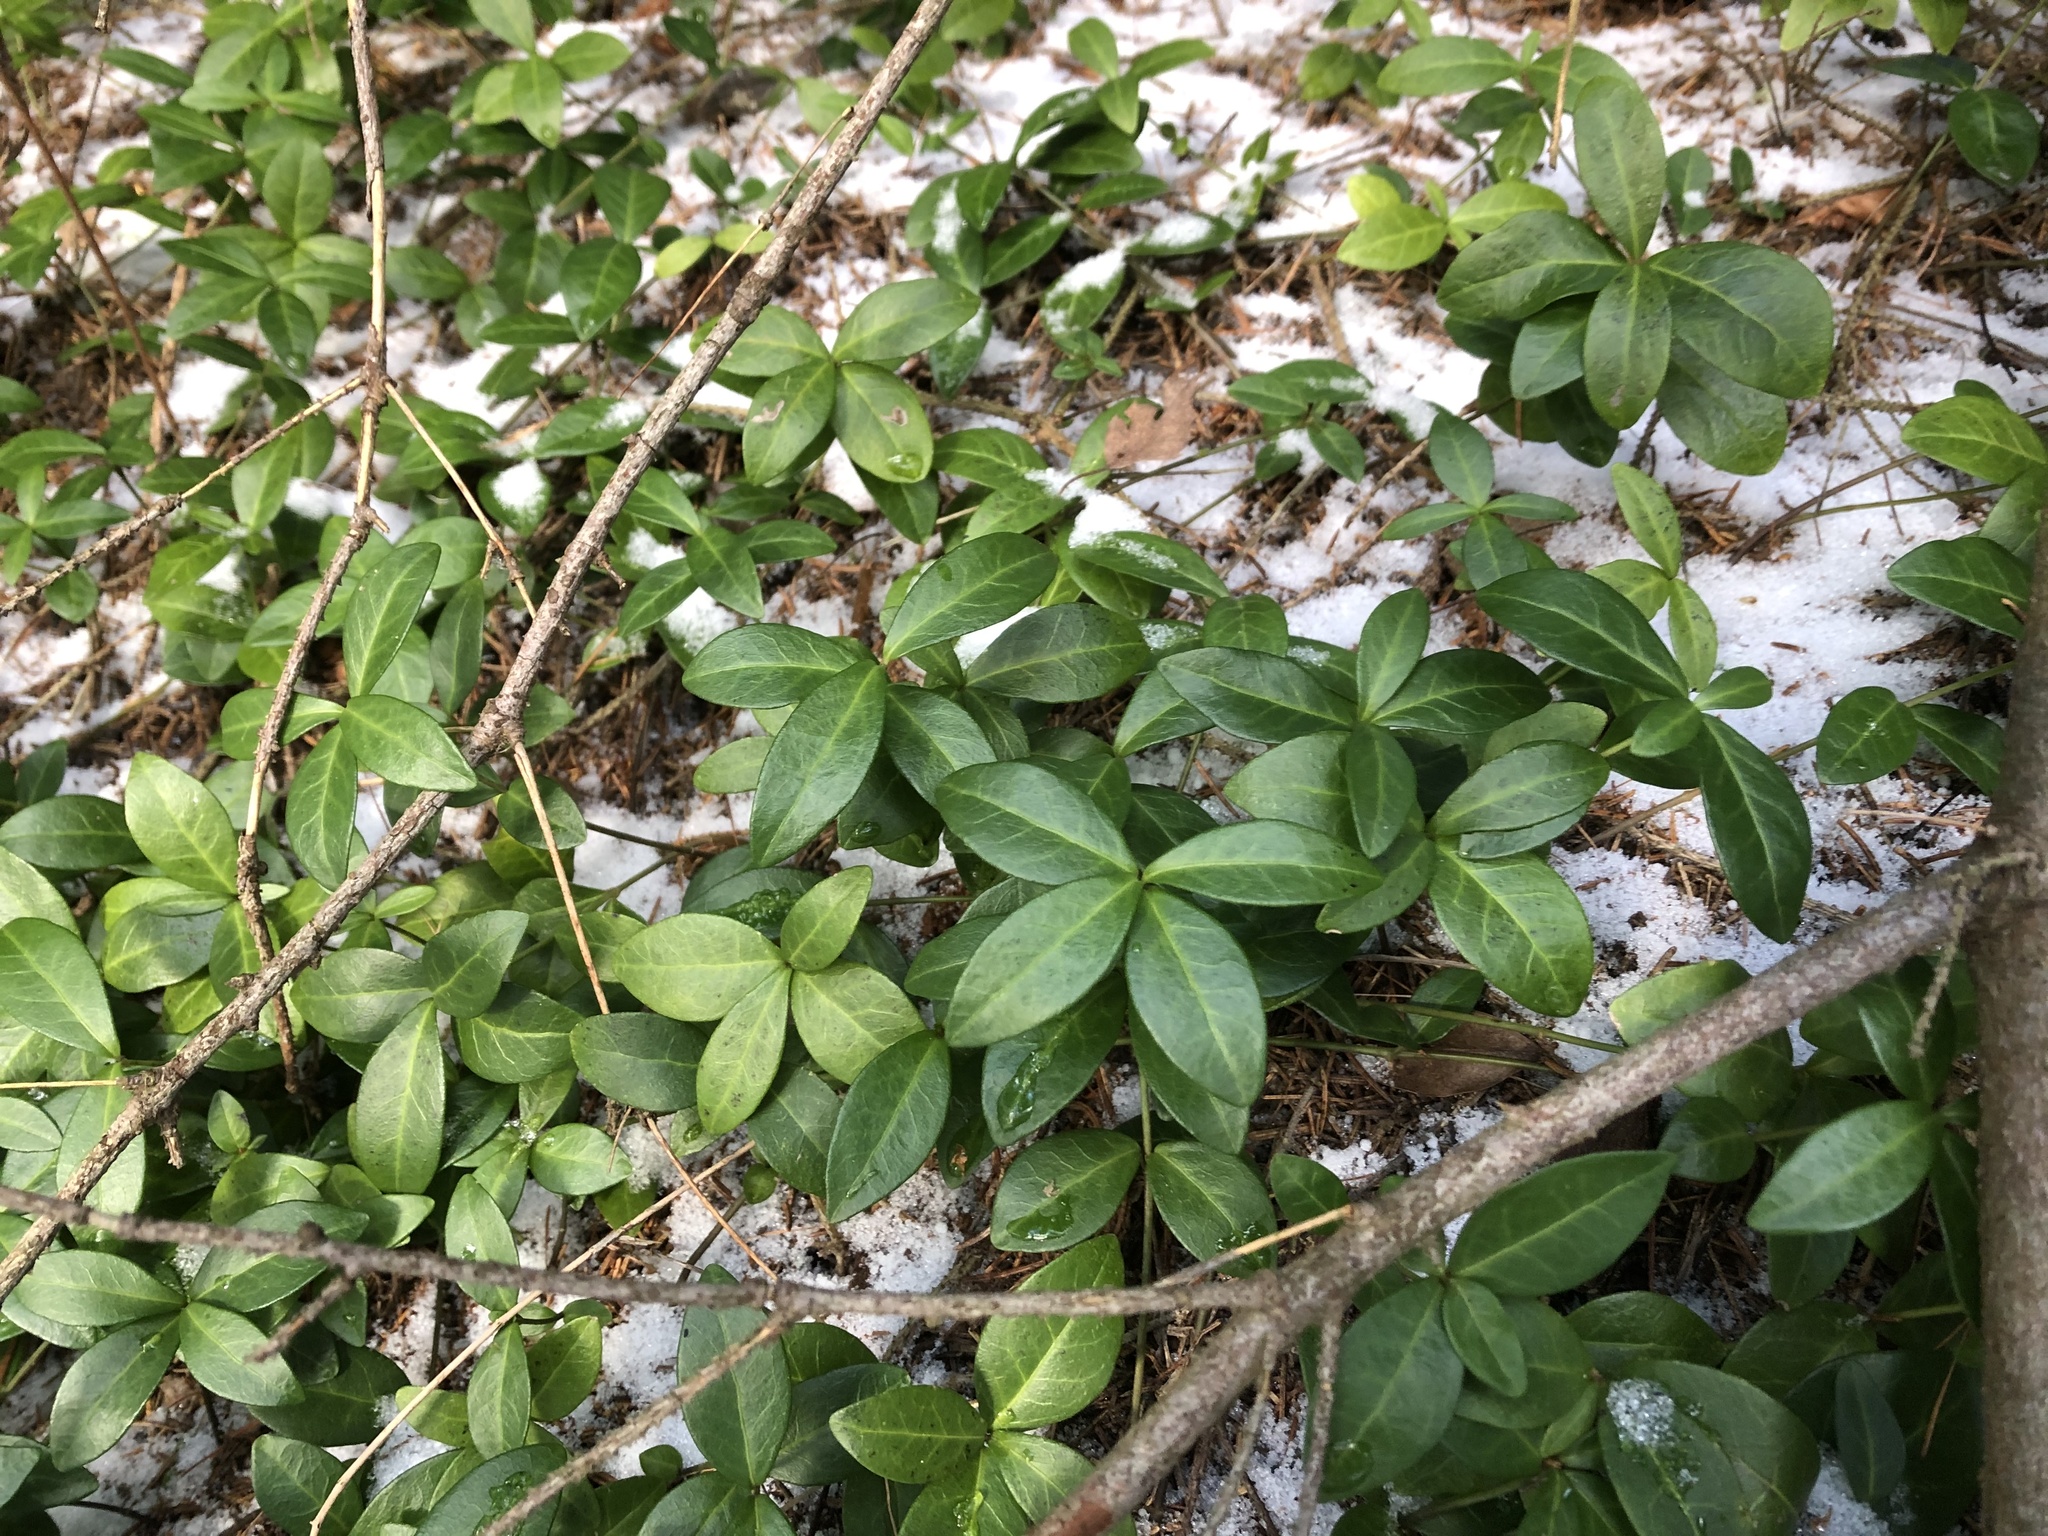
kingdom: Plantae
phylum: Tracheophyta
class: Magnoliopsida
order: Gentianales
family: Apocynaceae
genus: Vinca
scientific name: Vinca minor
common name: Lesser periwinkle
